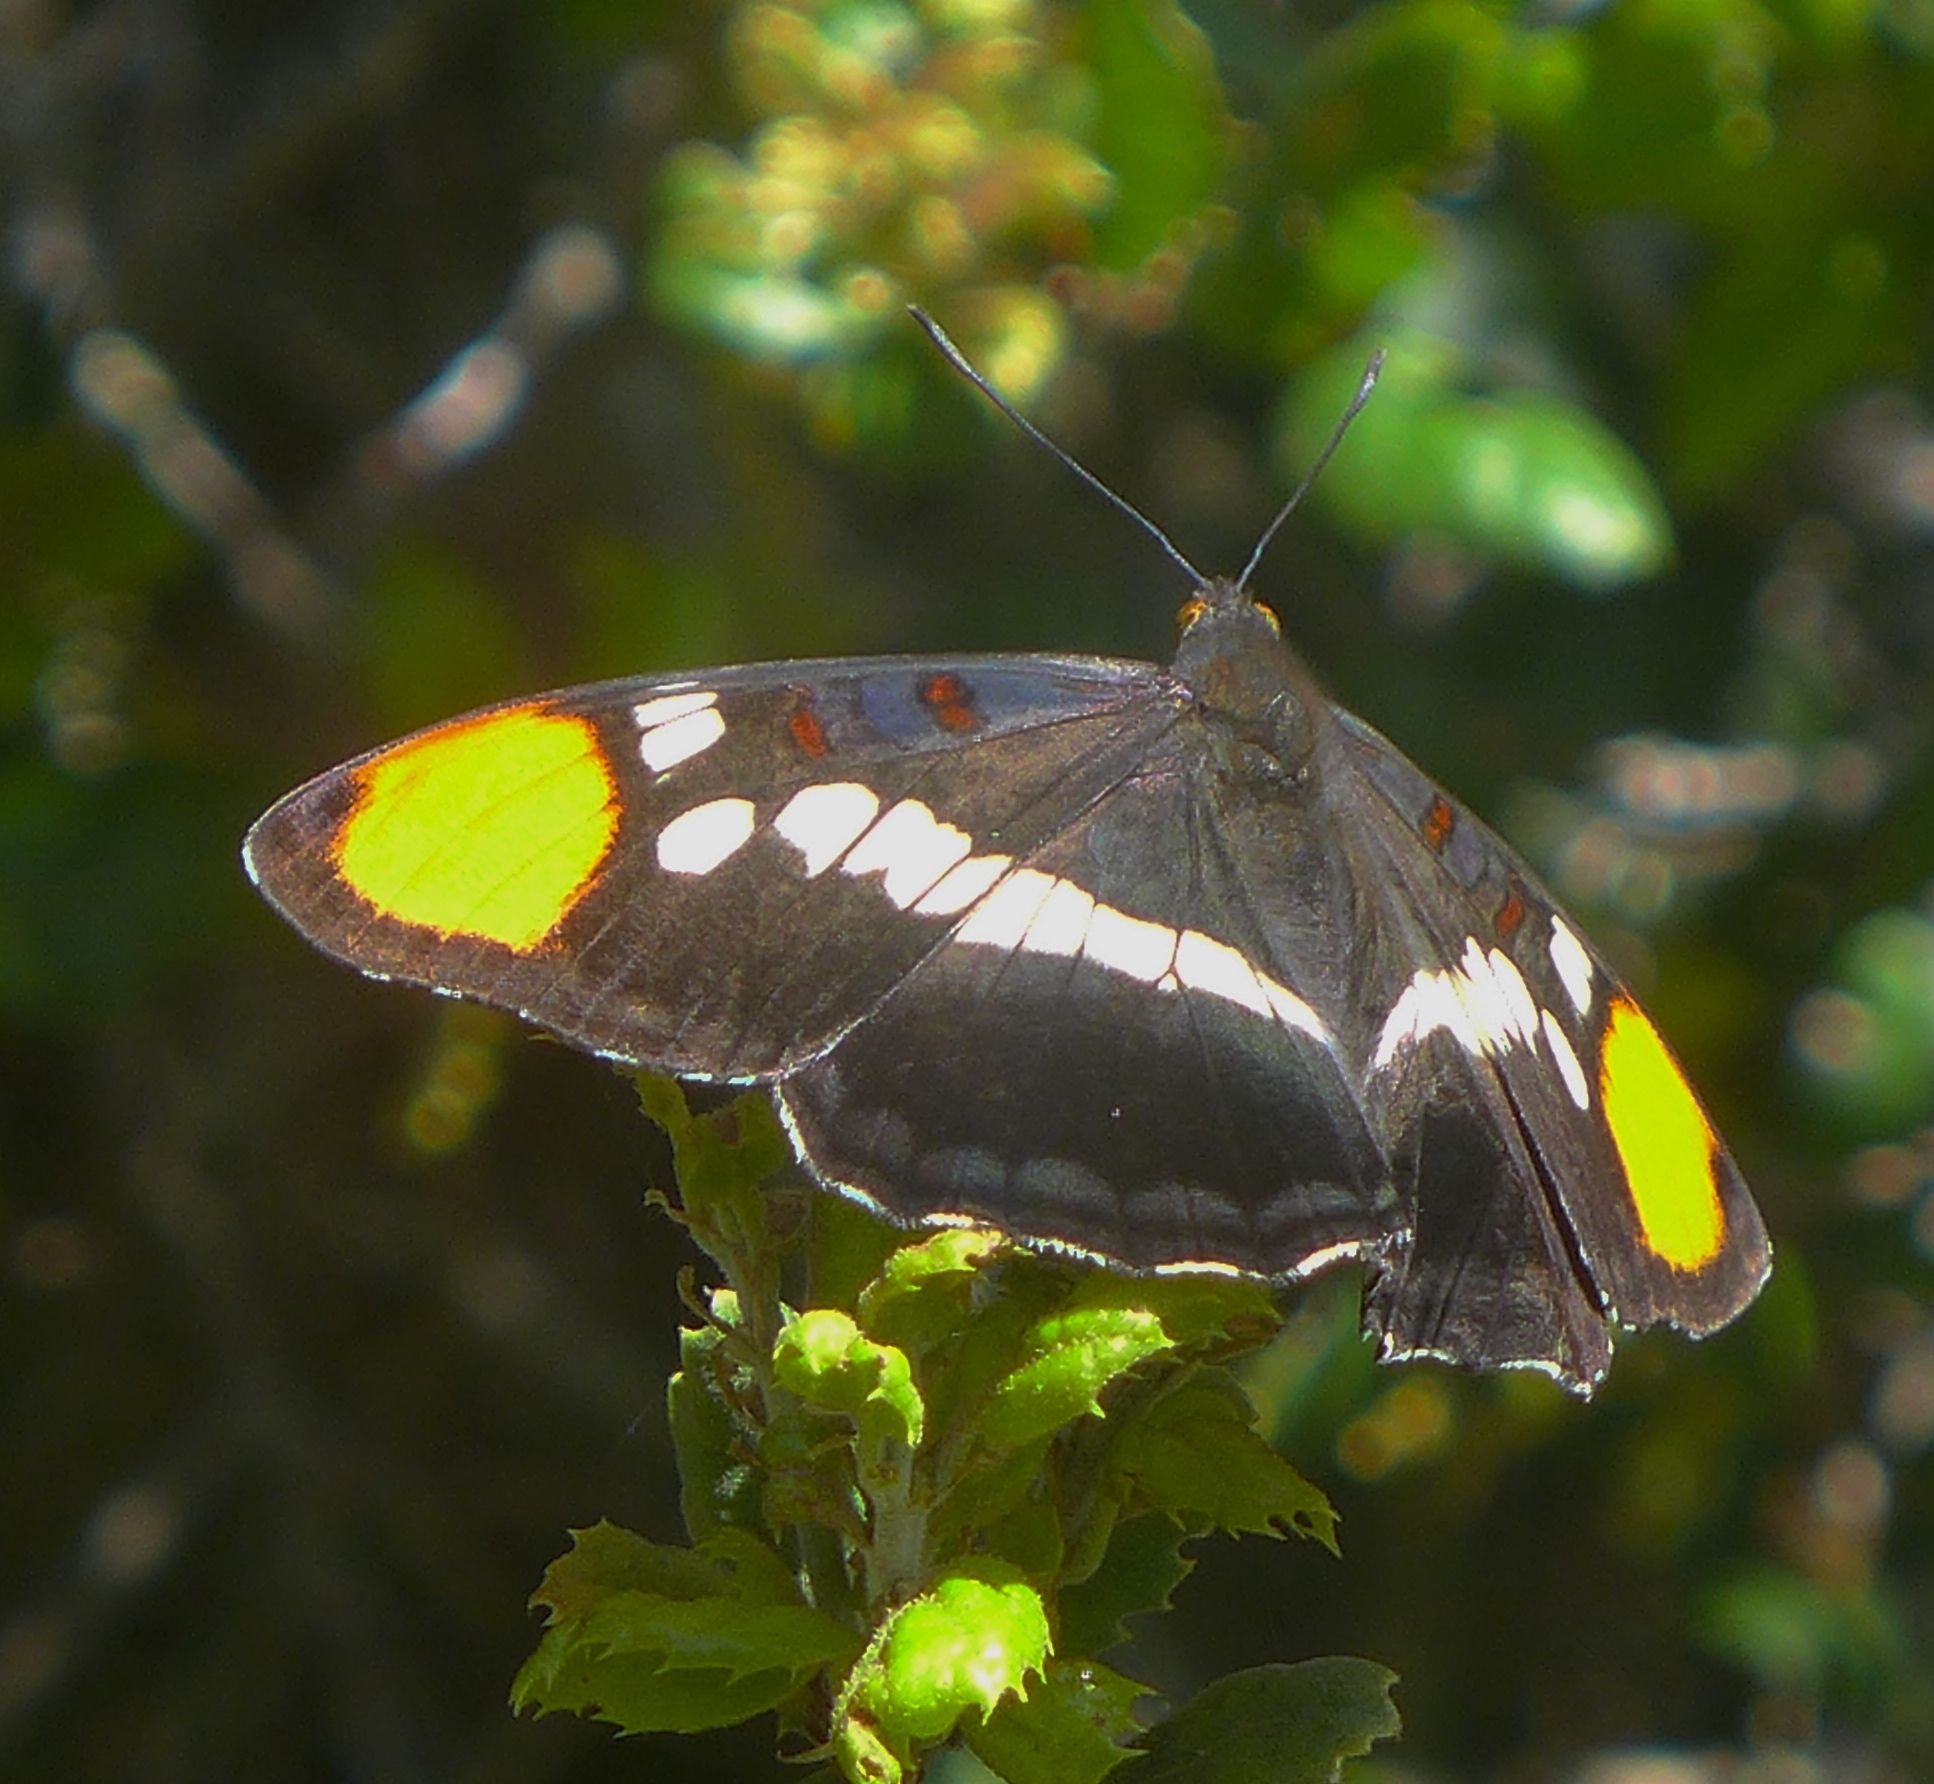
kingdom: Animalia
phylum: Arthropoda
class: Insecta
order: Lepidoptera
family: Nymphalidae
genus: Limenitis
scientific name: Limenitis bredowii
